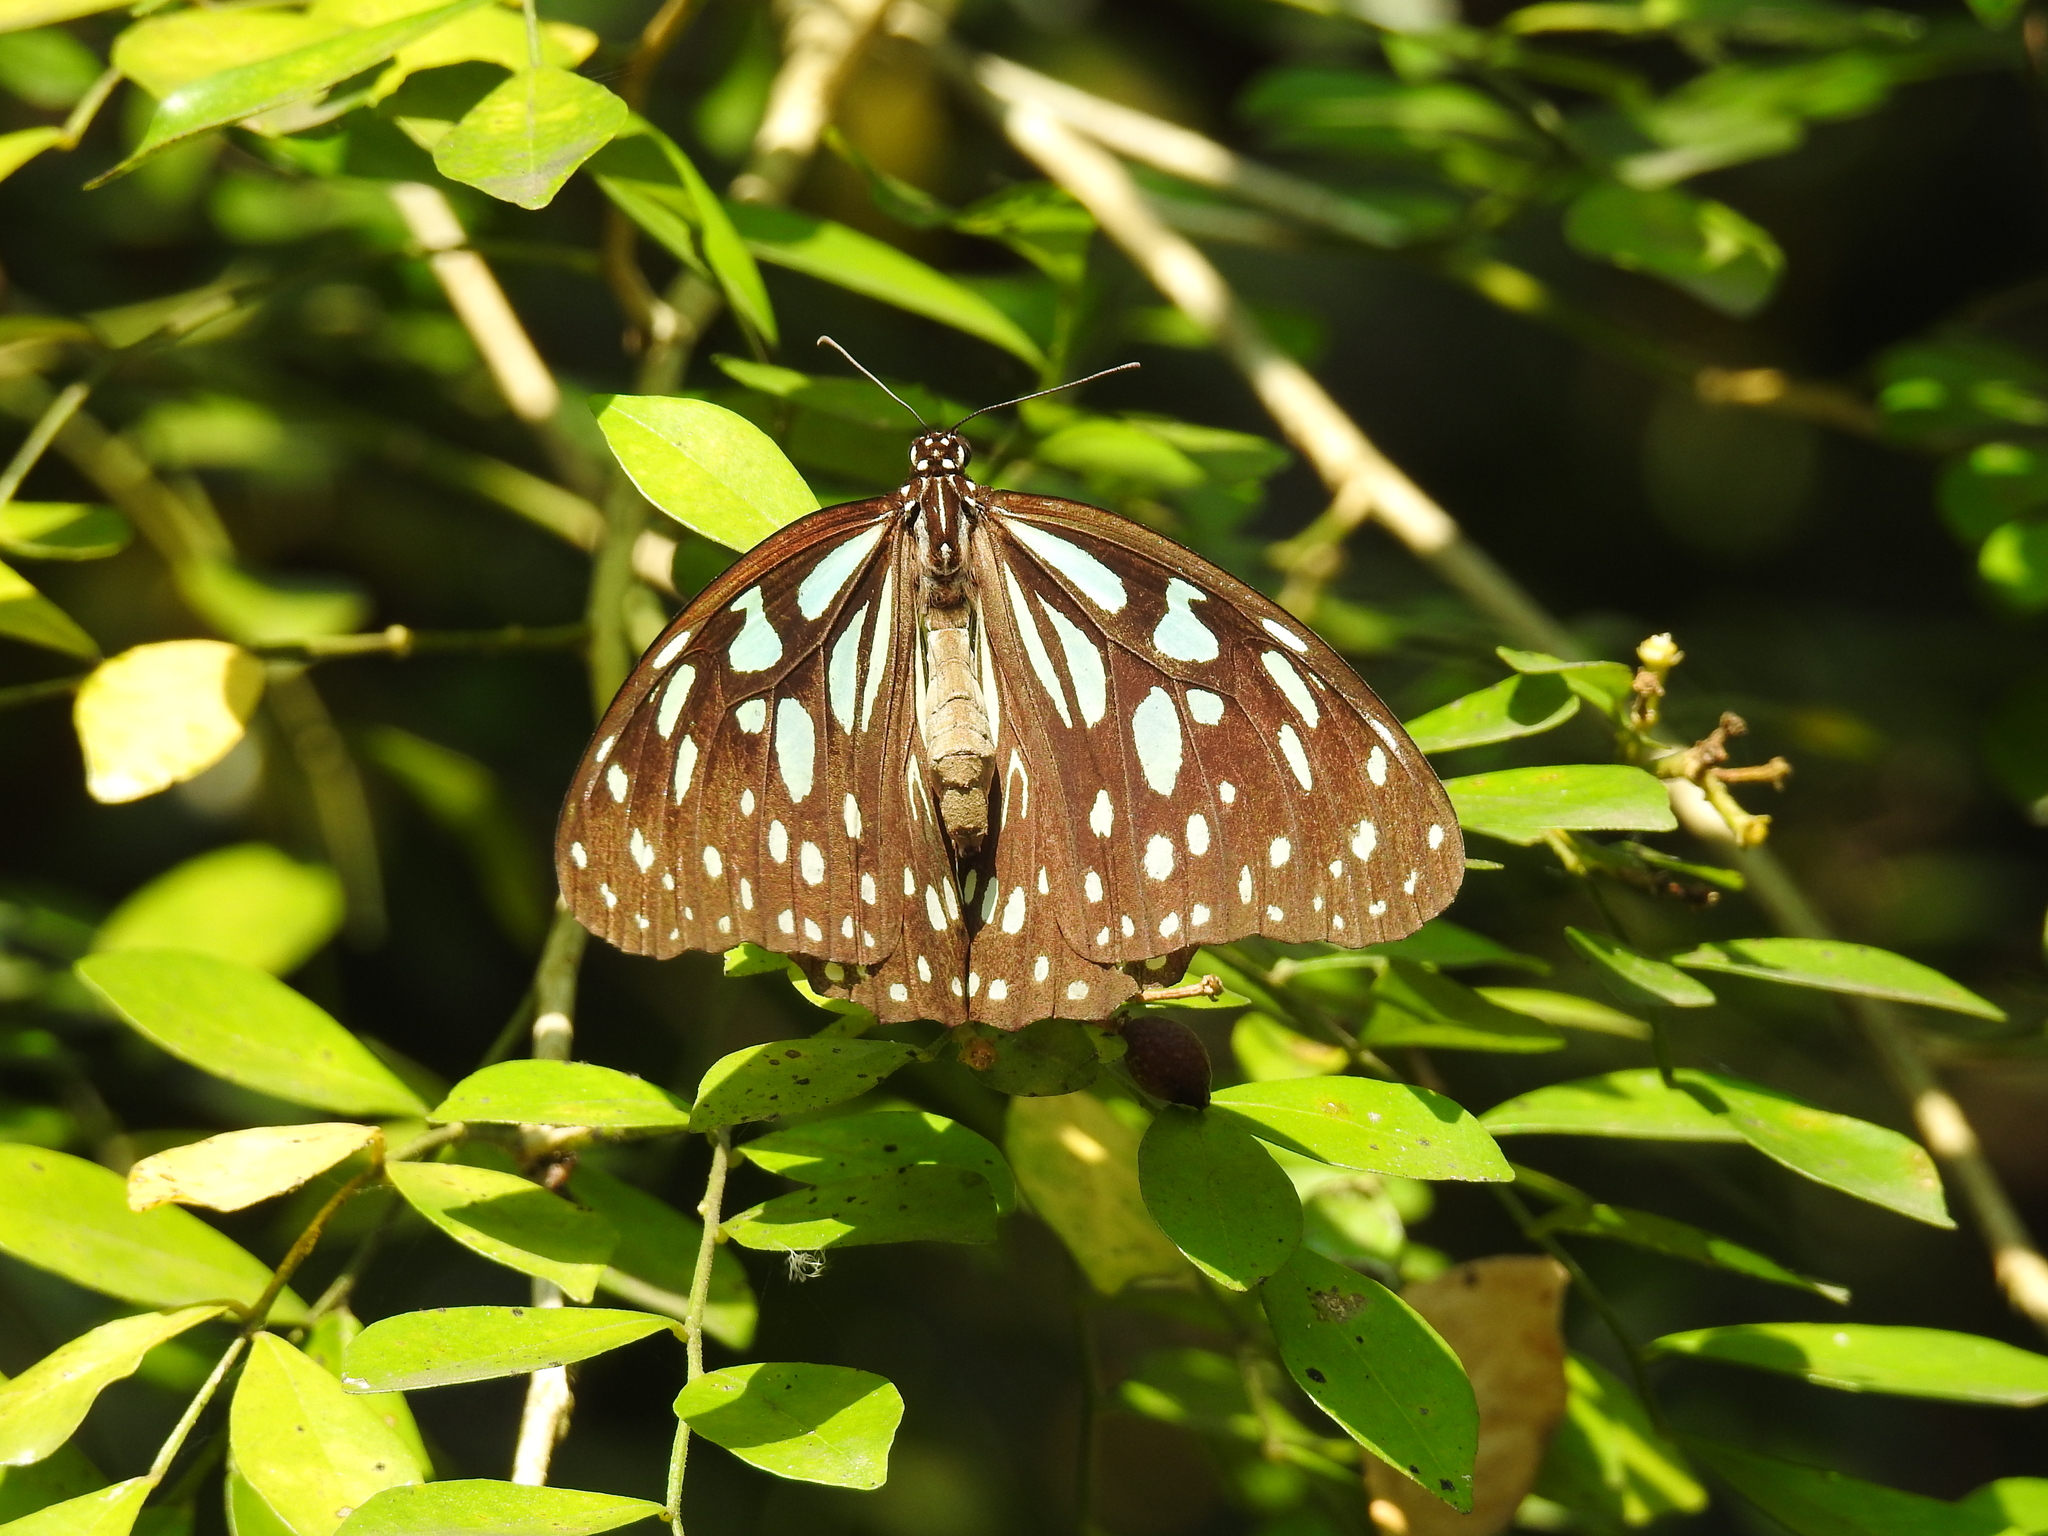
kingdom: Animalia
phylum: Arthropoda
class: Insecta
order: Lepidoptera
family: Nymphalidae
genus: Tirumala
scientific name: Tirumala limniace
